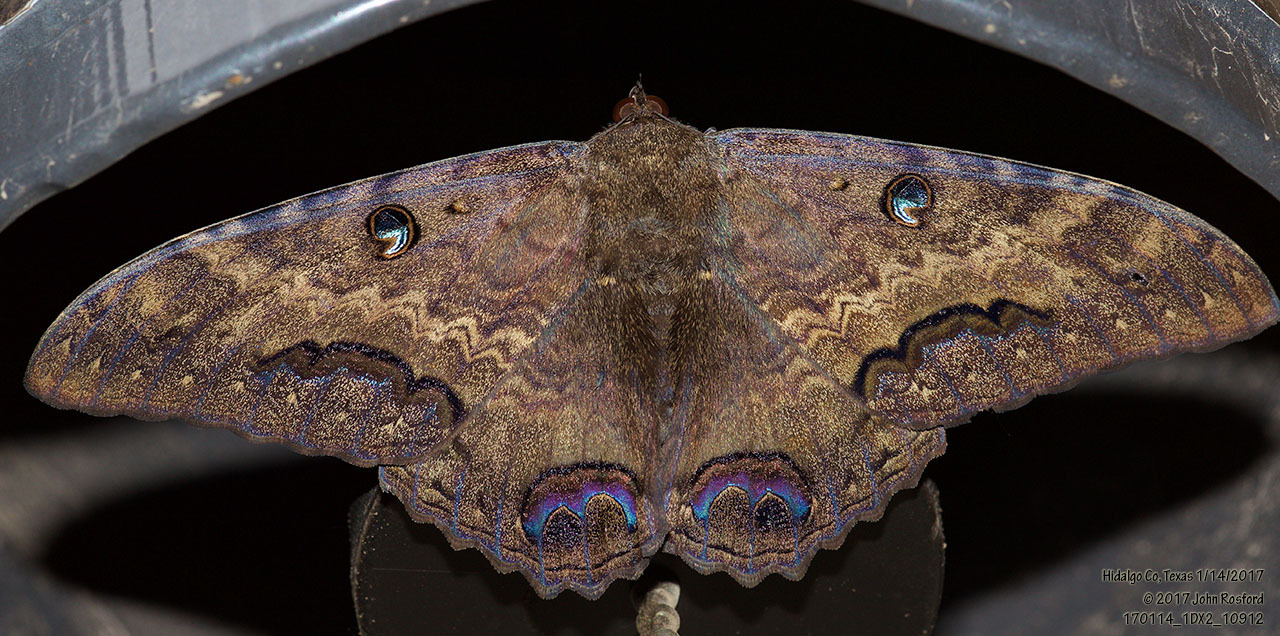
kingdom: Animalia
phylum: Arthropoda
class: Insecta
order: Lepidoptera
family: Erebidae
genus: Ascalapha
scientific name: Ascalapha odorata
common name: Black witch
